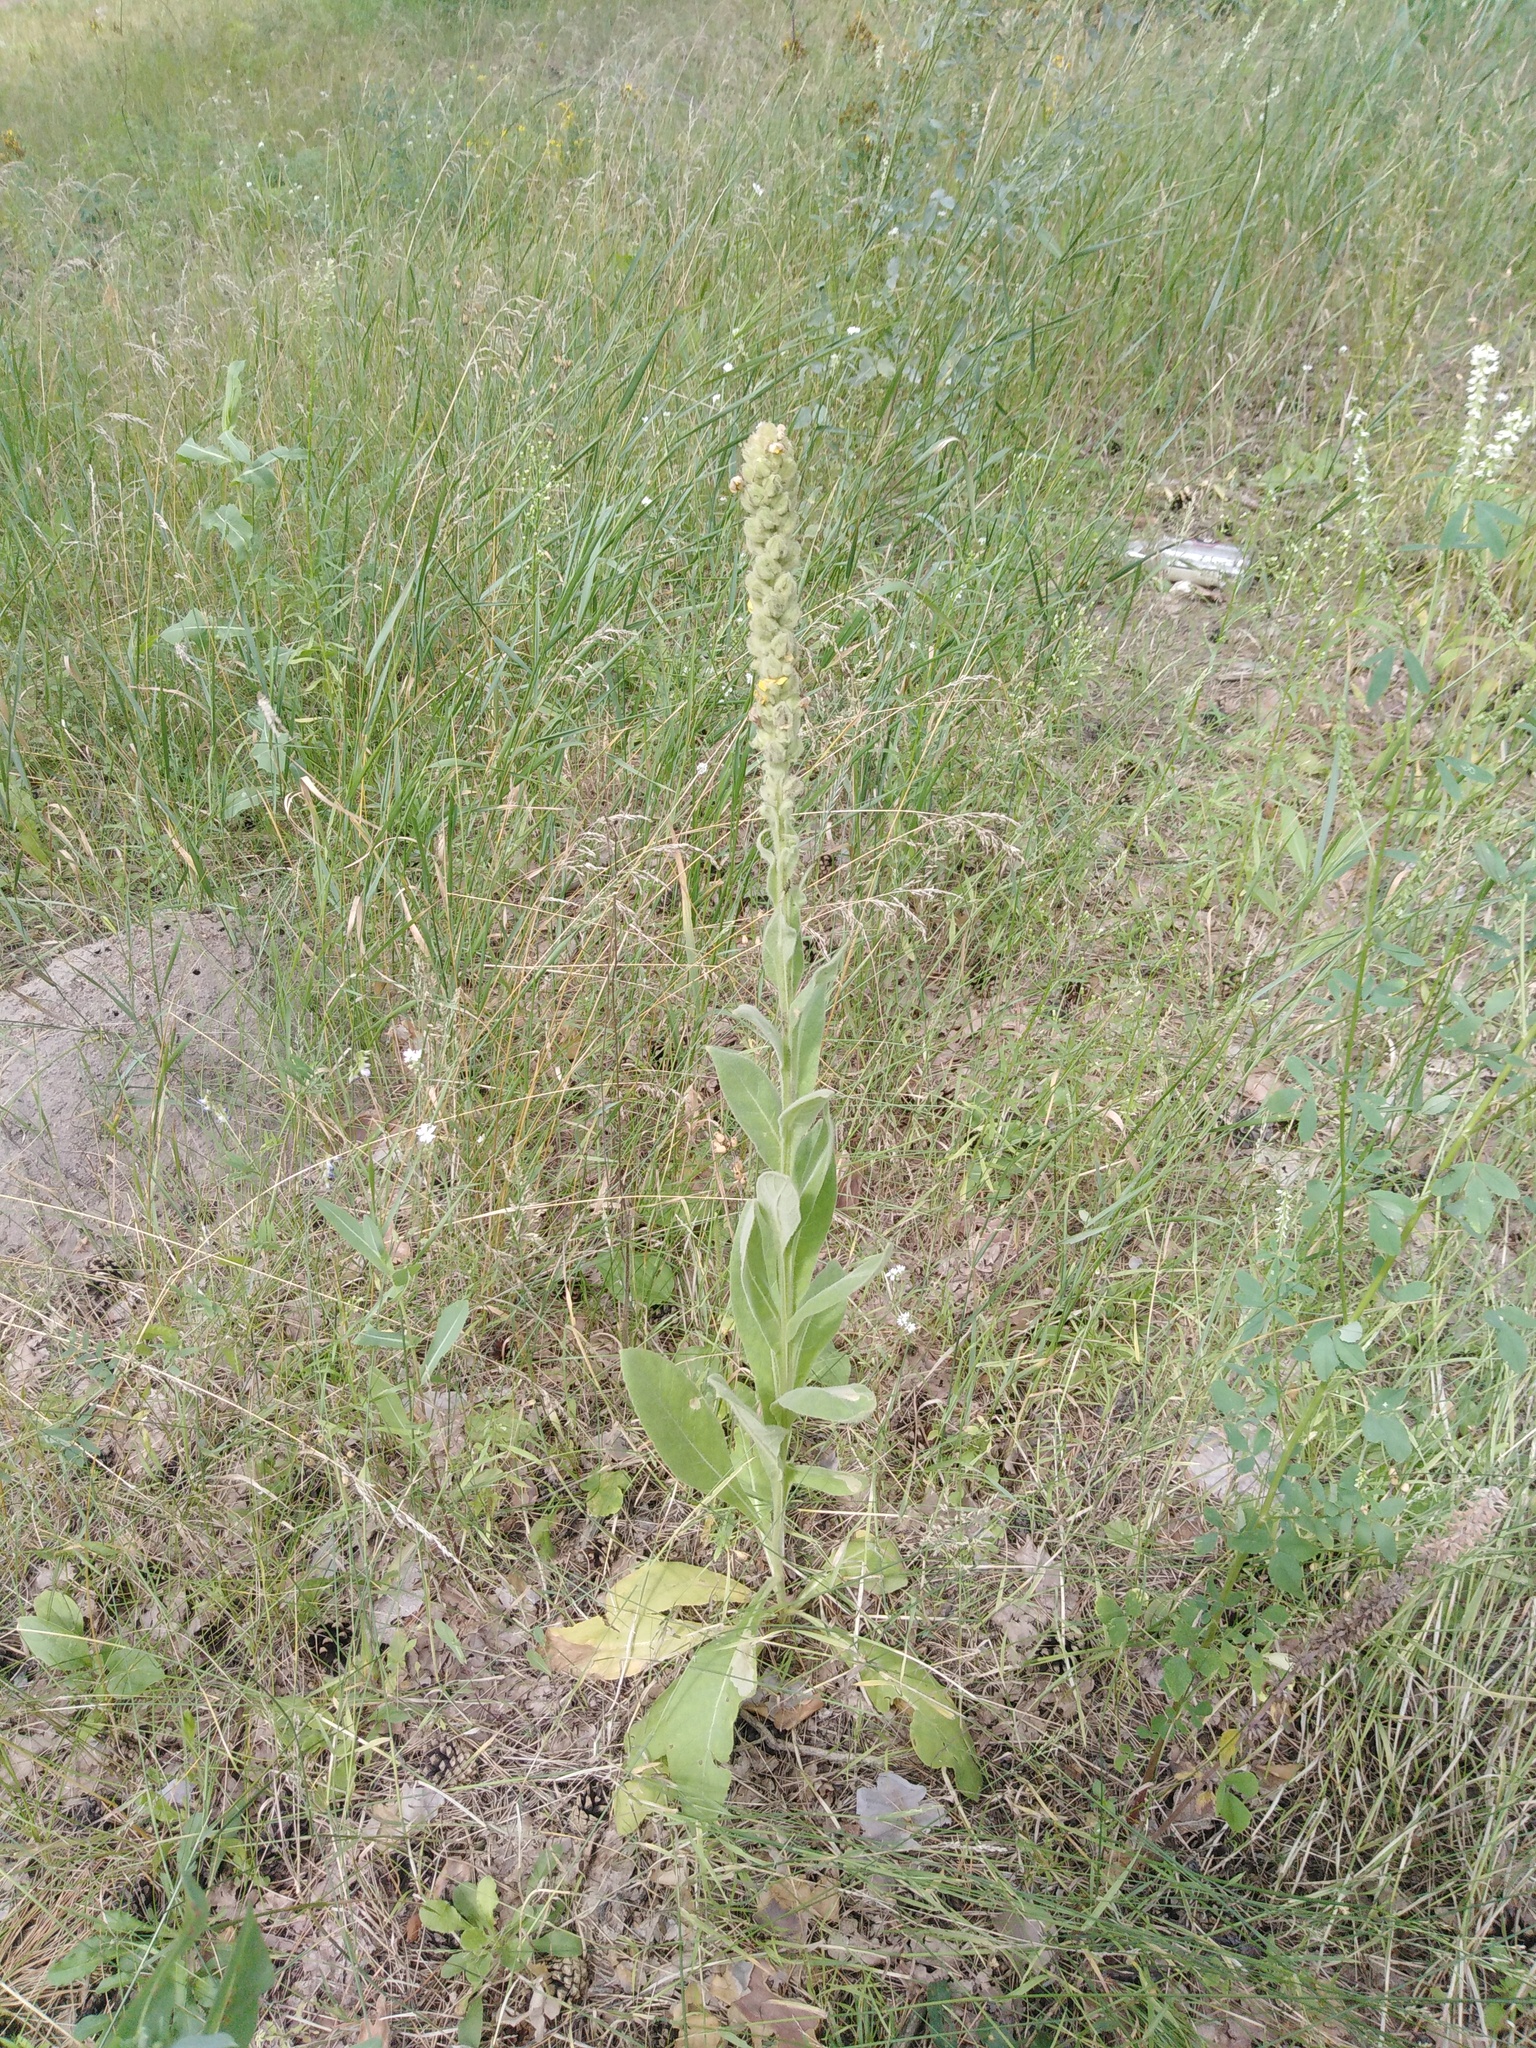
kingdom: Plantae
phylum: Tracheophyta
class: Magnoliopsida
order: Lamiales
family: Scrophulariaceae
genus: Verbascum
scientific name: Verbascum thapsus
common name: Common mullein
